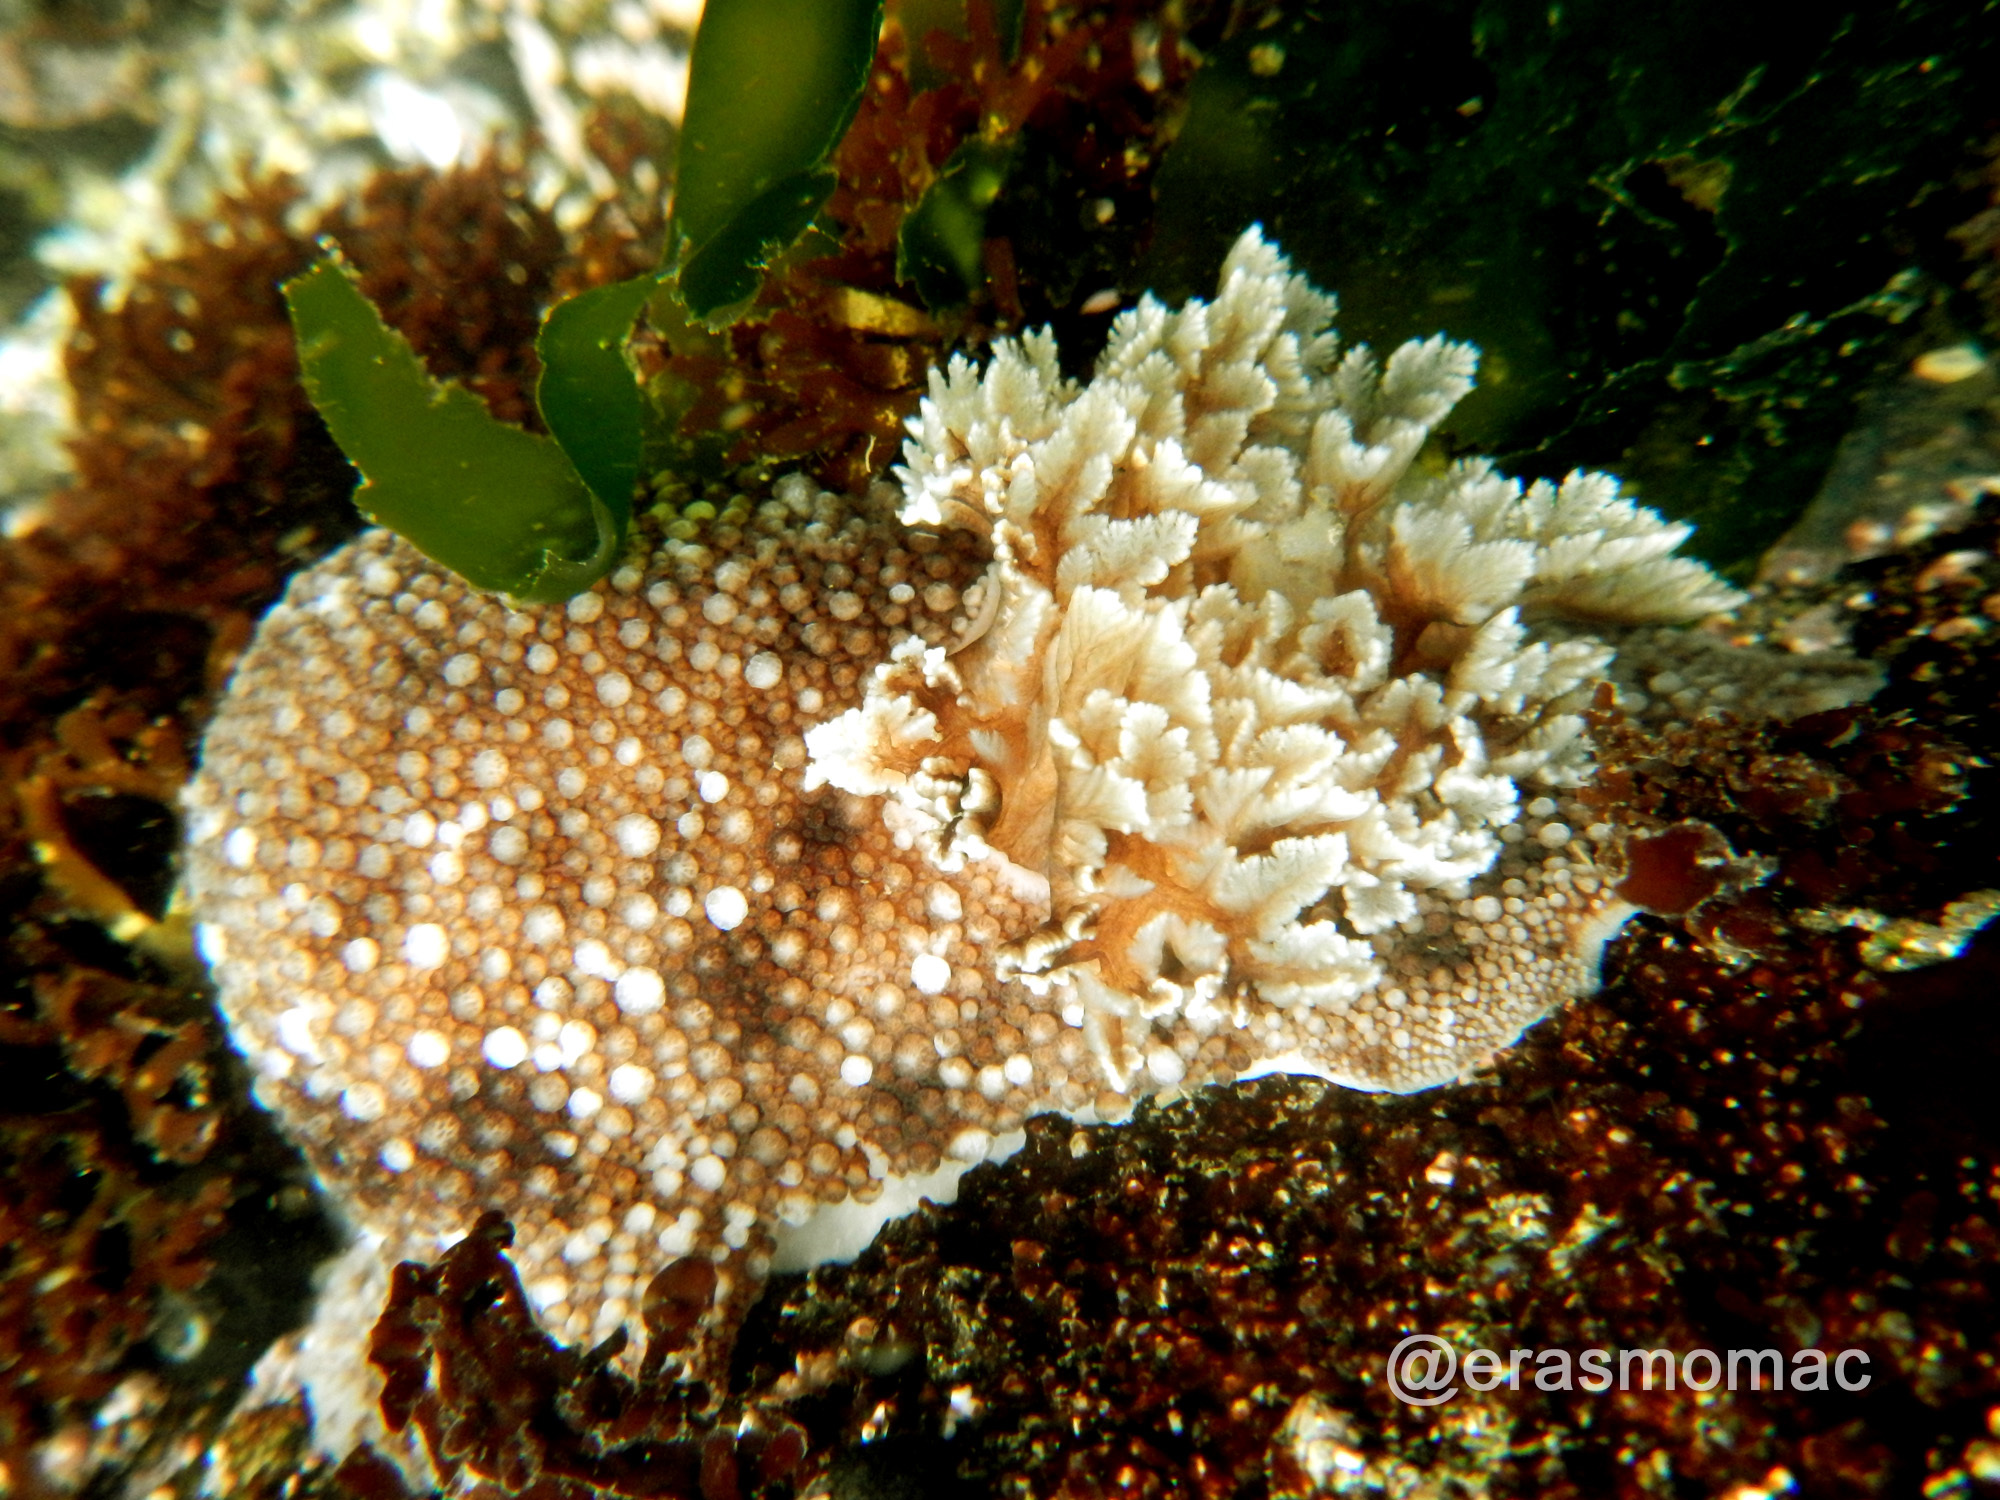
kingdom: Animalia
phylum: Mollusca
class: Gastropoda
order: Nudibranchia
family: Discodorididae
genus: Diaulula
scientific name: Diaulula variolata
